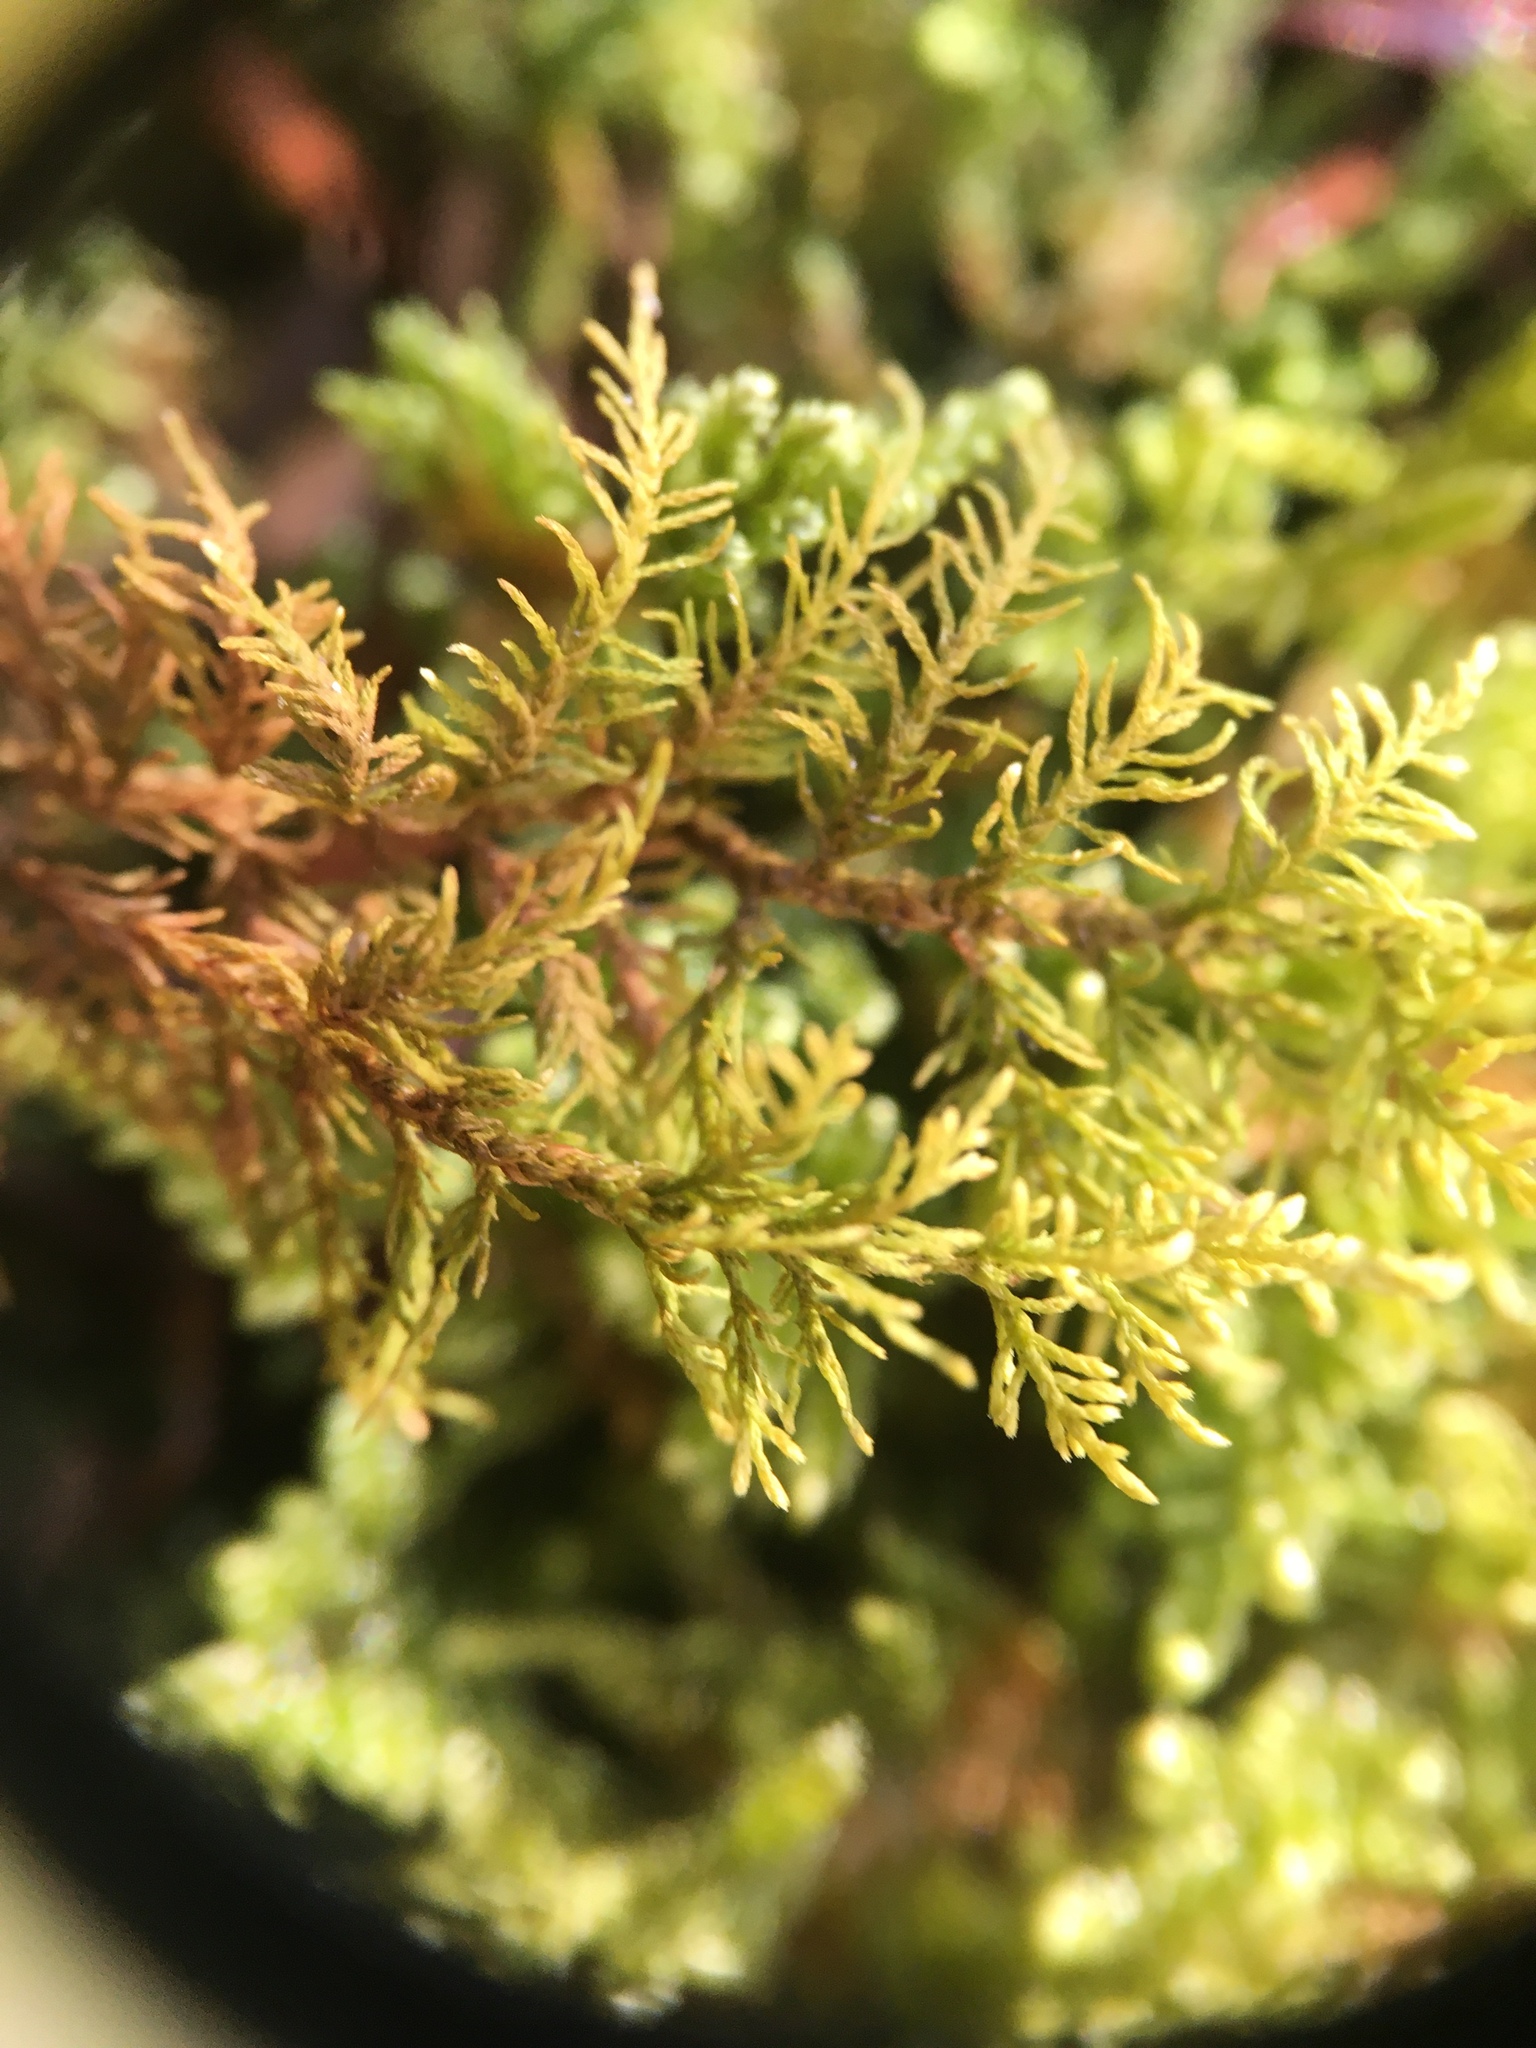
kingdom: Plantae
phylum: Bryophyta
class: Bryopsida
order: Hypnales
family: Thuidiaceae
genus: Thuidium
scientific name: Thuidium delicatulum
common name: Delicate fern moss
